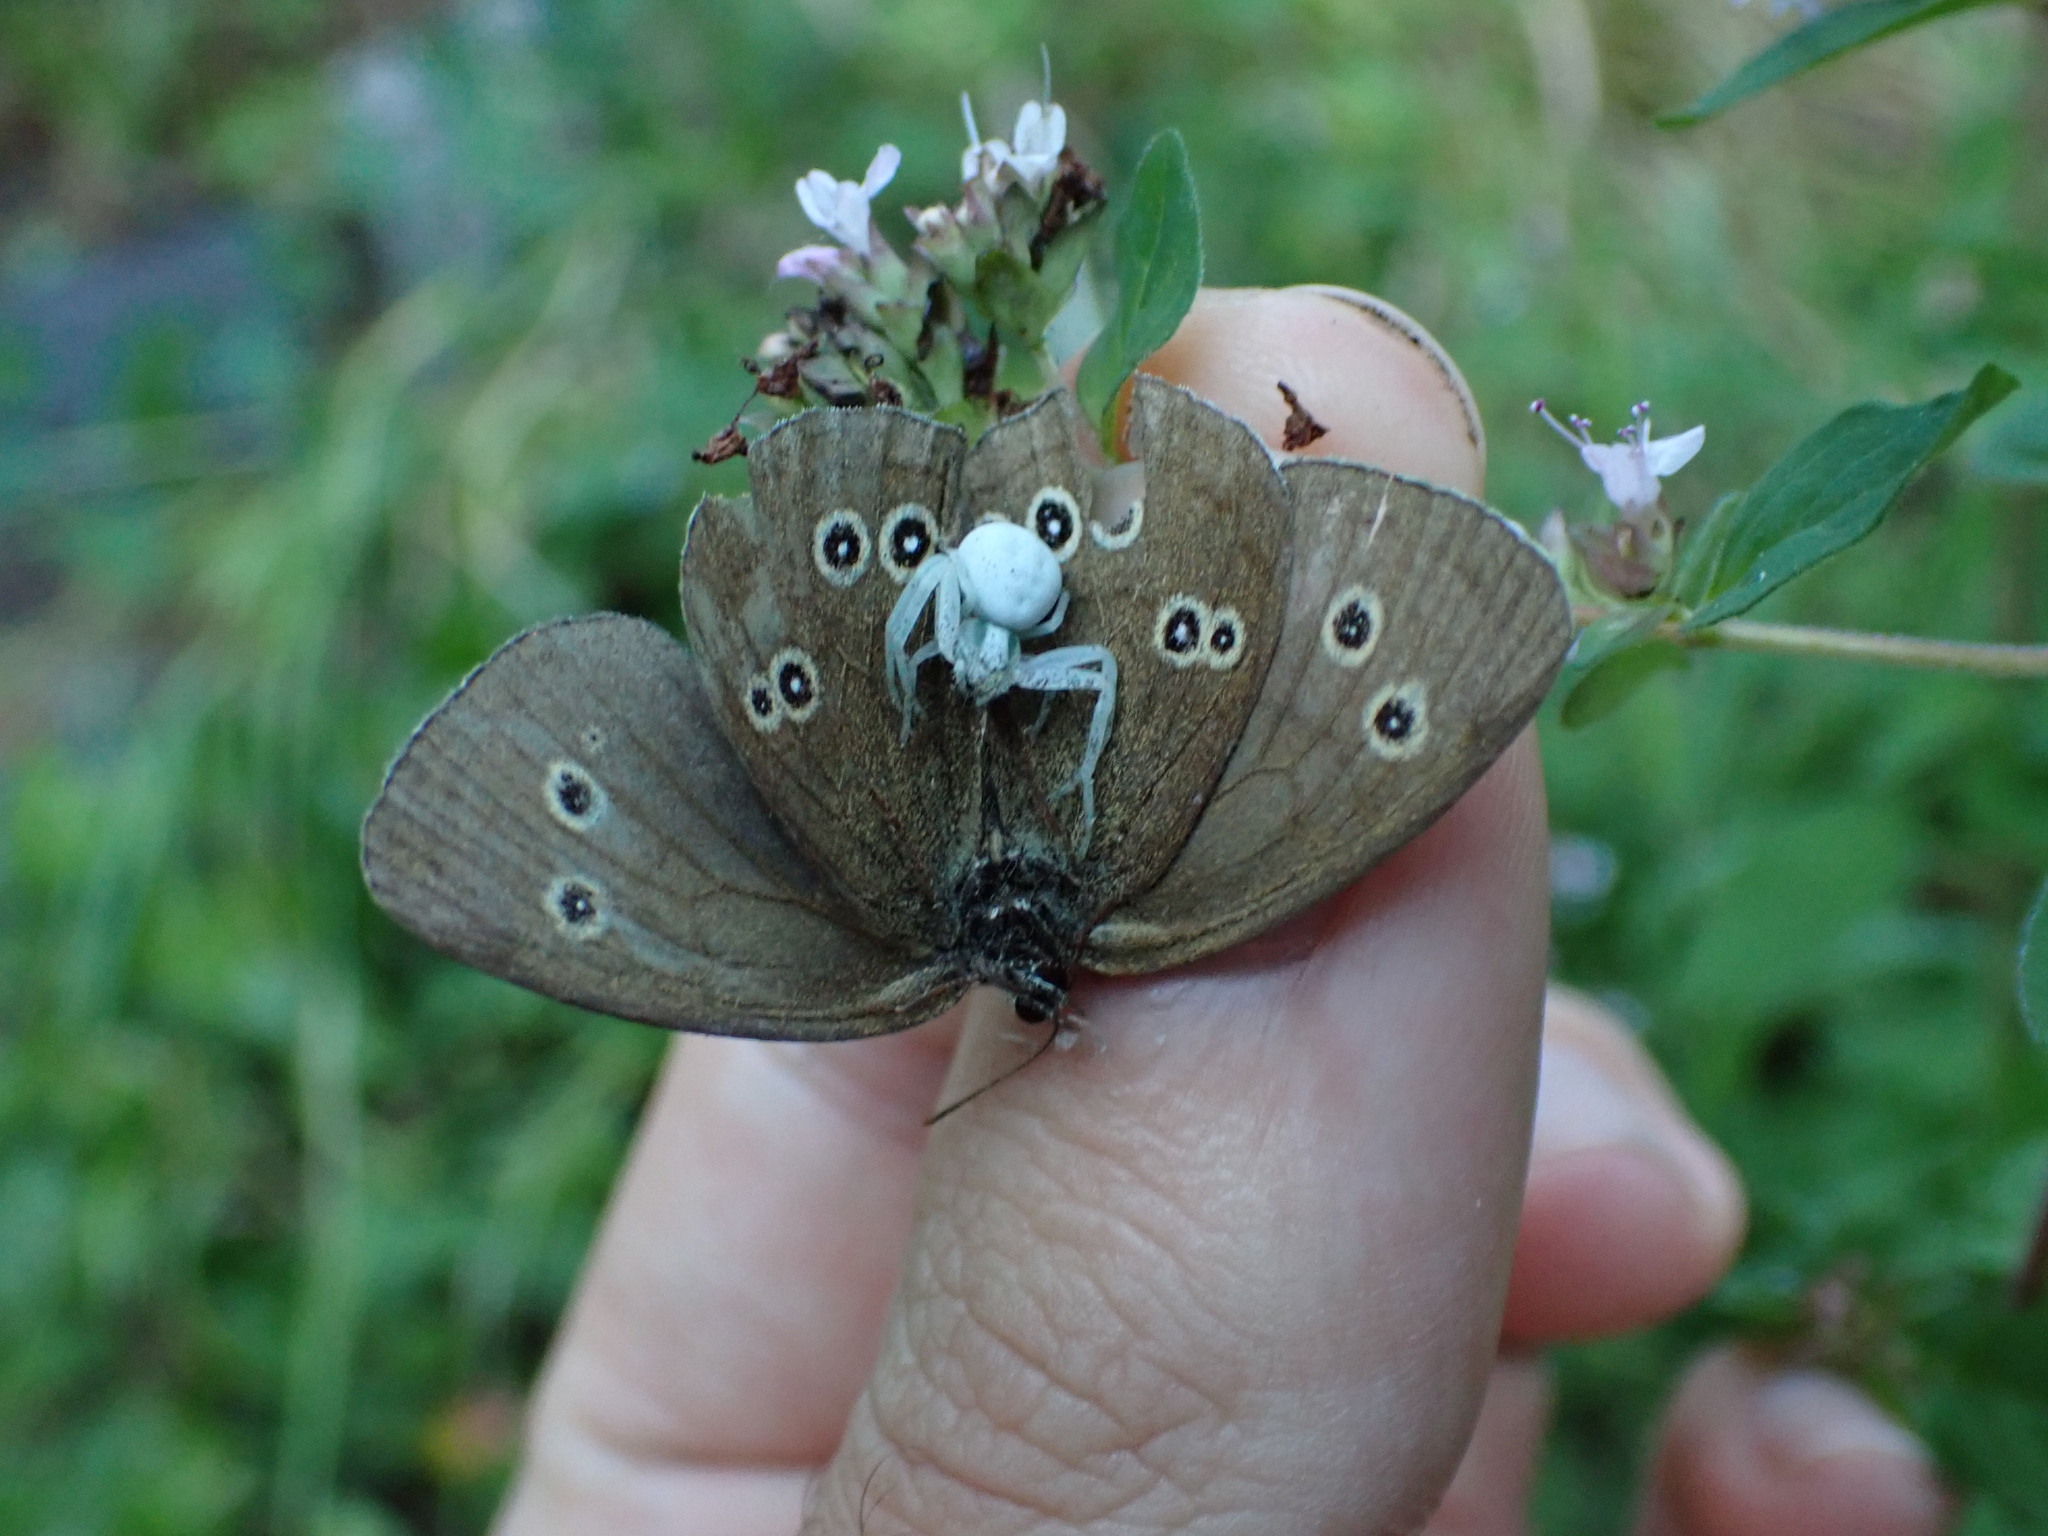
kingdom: Animalia
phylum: Arthropoda
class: Insecta
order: Lepidoptera
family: Nymphalidae
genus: Aphantopus
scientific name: Aphantopus hyperantus
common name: Ringlet
